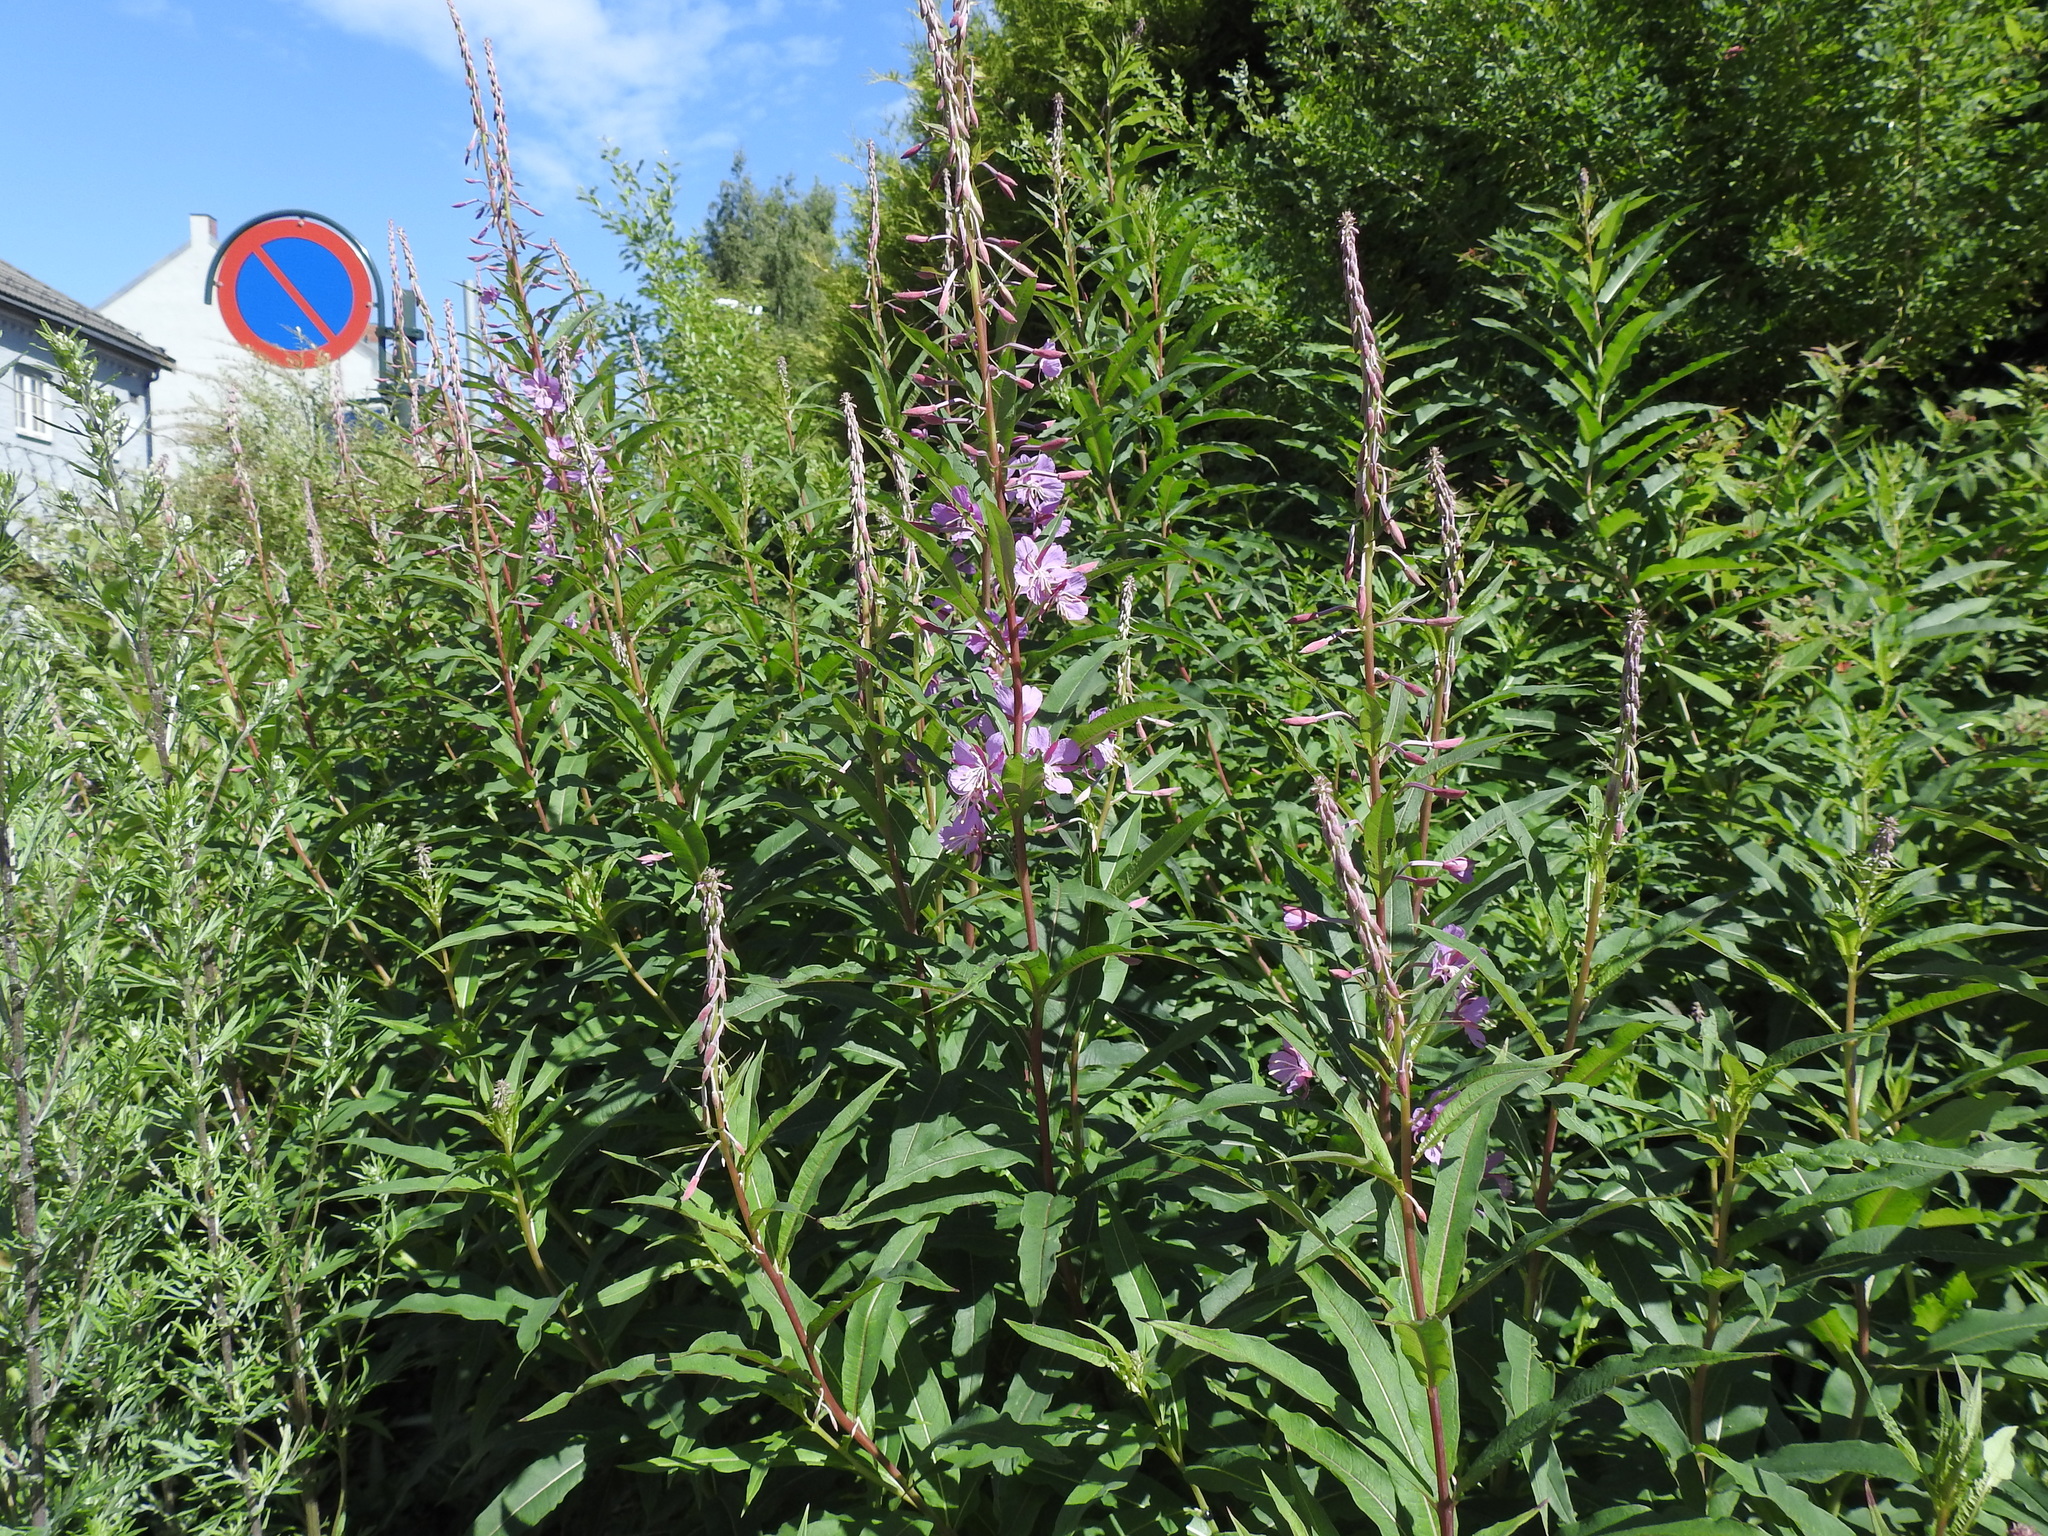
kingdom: Plantae
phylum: Tracheophyta
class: Magnoliopsida
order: Myrtales
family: Onagraceae
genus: Chamaenerion
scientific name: Chamaenerion angustifolium
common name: Fireweed
